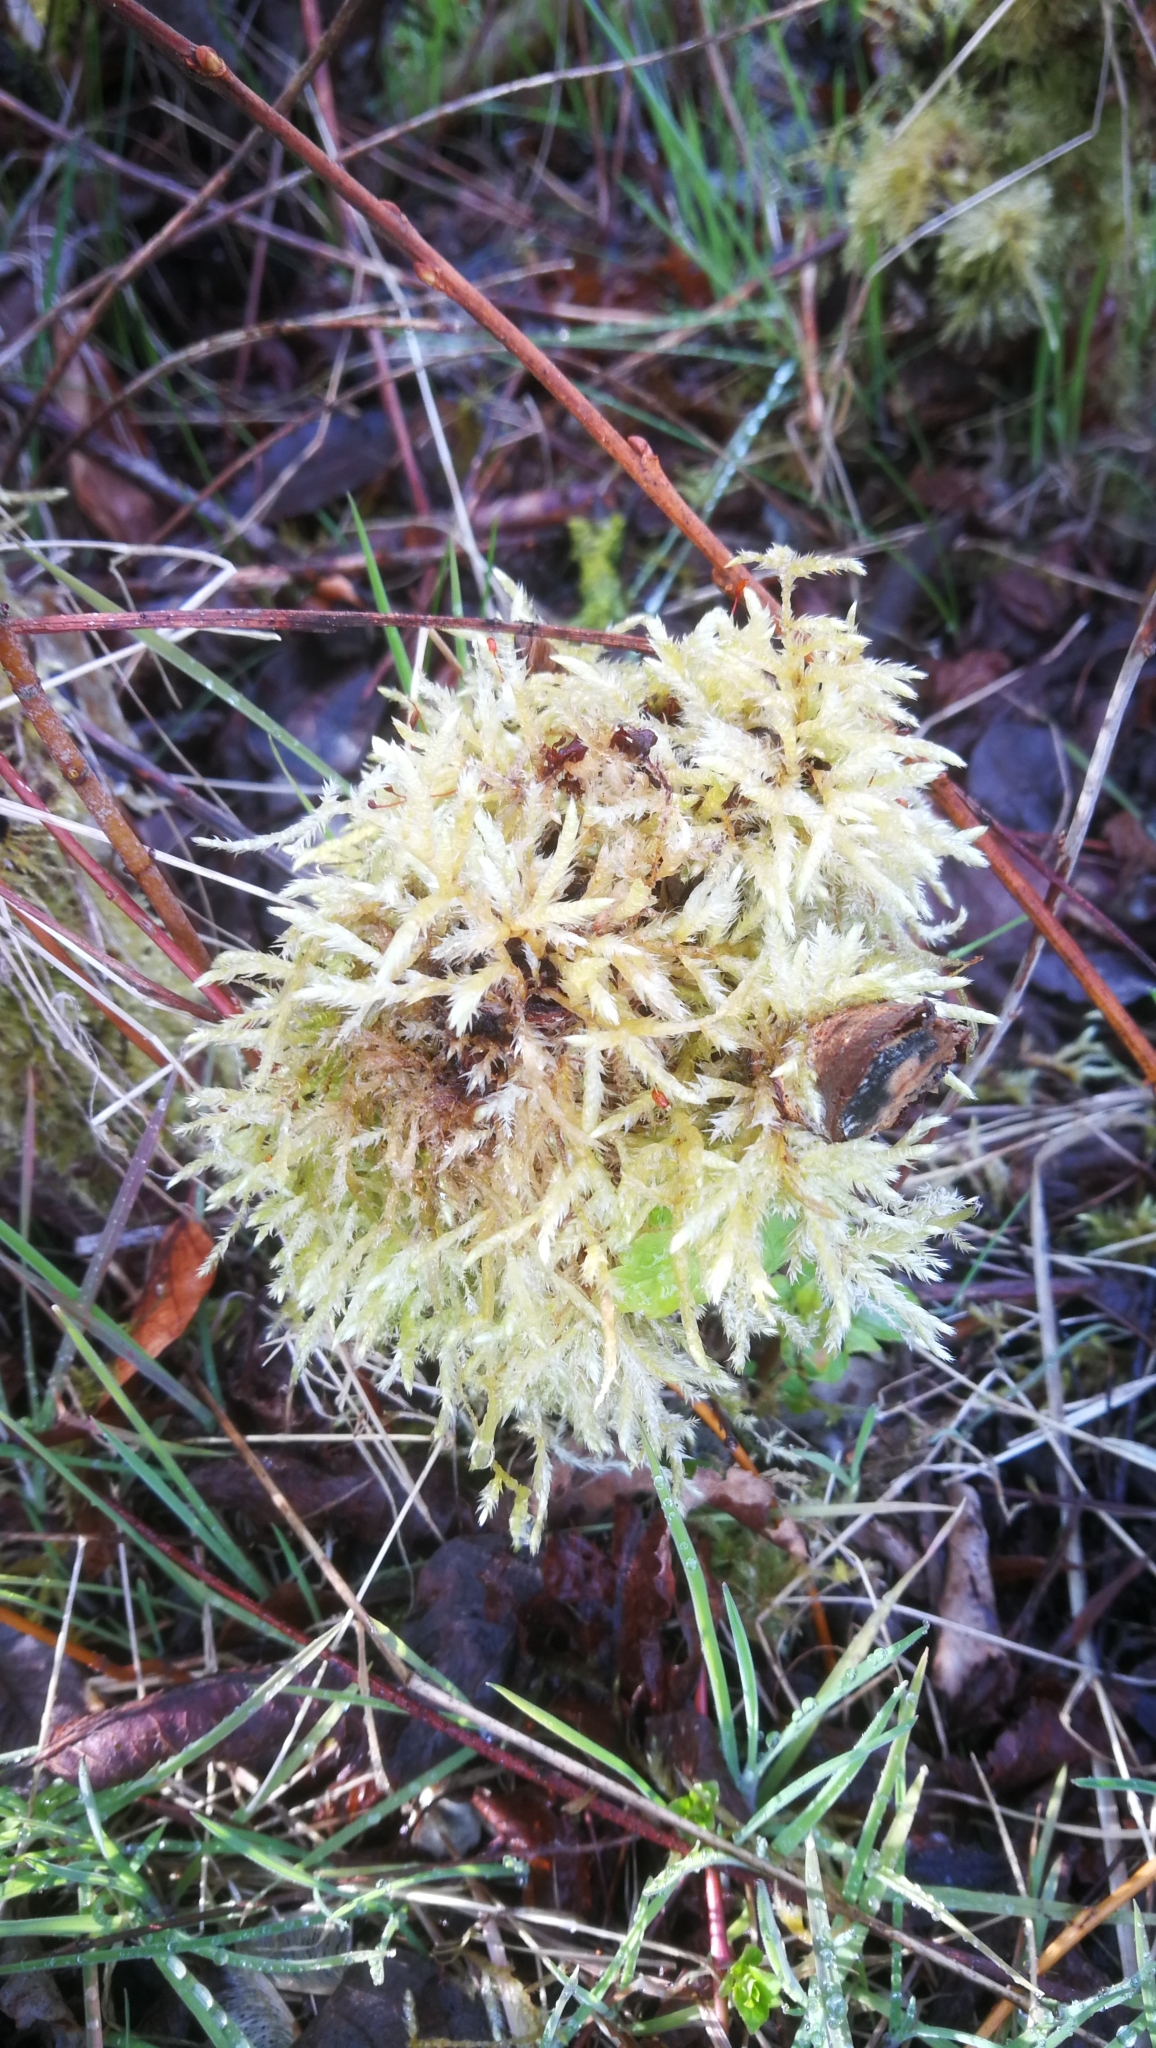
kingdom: Plantae
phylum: Bryophyta
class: Bryopsida
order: Hypnales
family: Brachytheciaceae
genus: Brachythecium
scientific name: Brachythecium rutabulum
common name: Rough-stalked feather-moss
